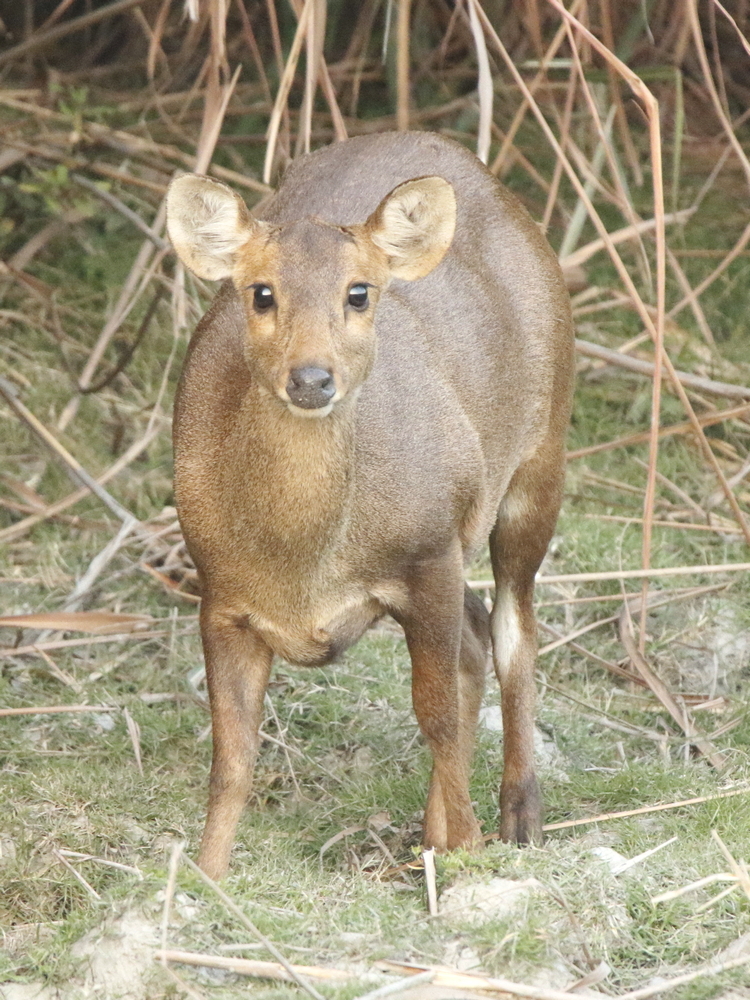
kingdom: Animalia
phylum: Chordata
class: Mammalia
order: Artiodactyla
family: Cervidae
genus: Axis
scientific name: Axis porcinus
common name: Hog deer
